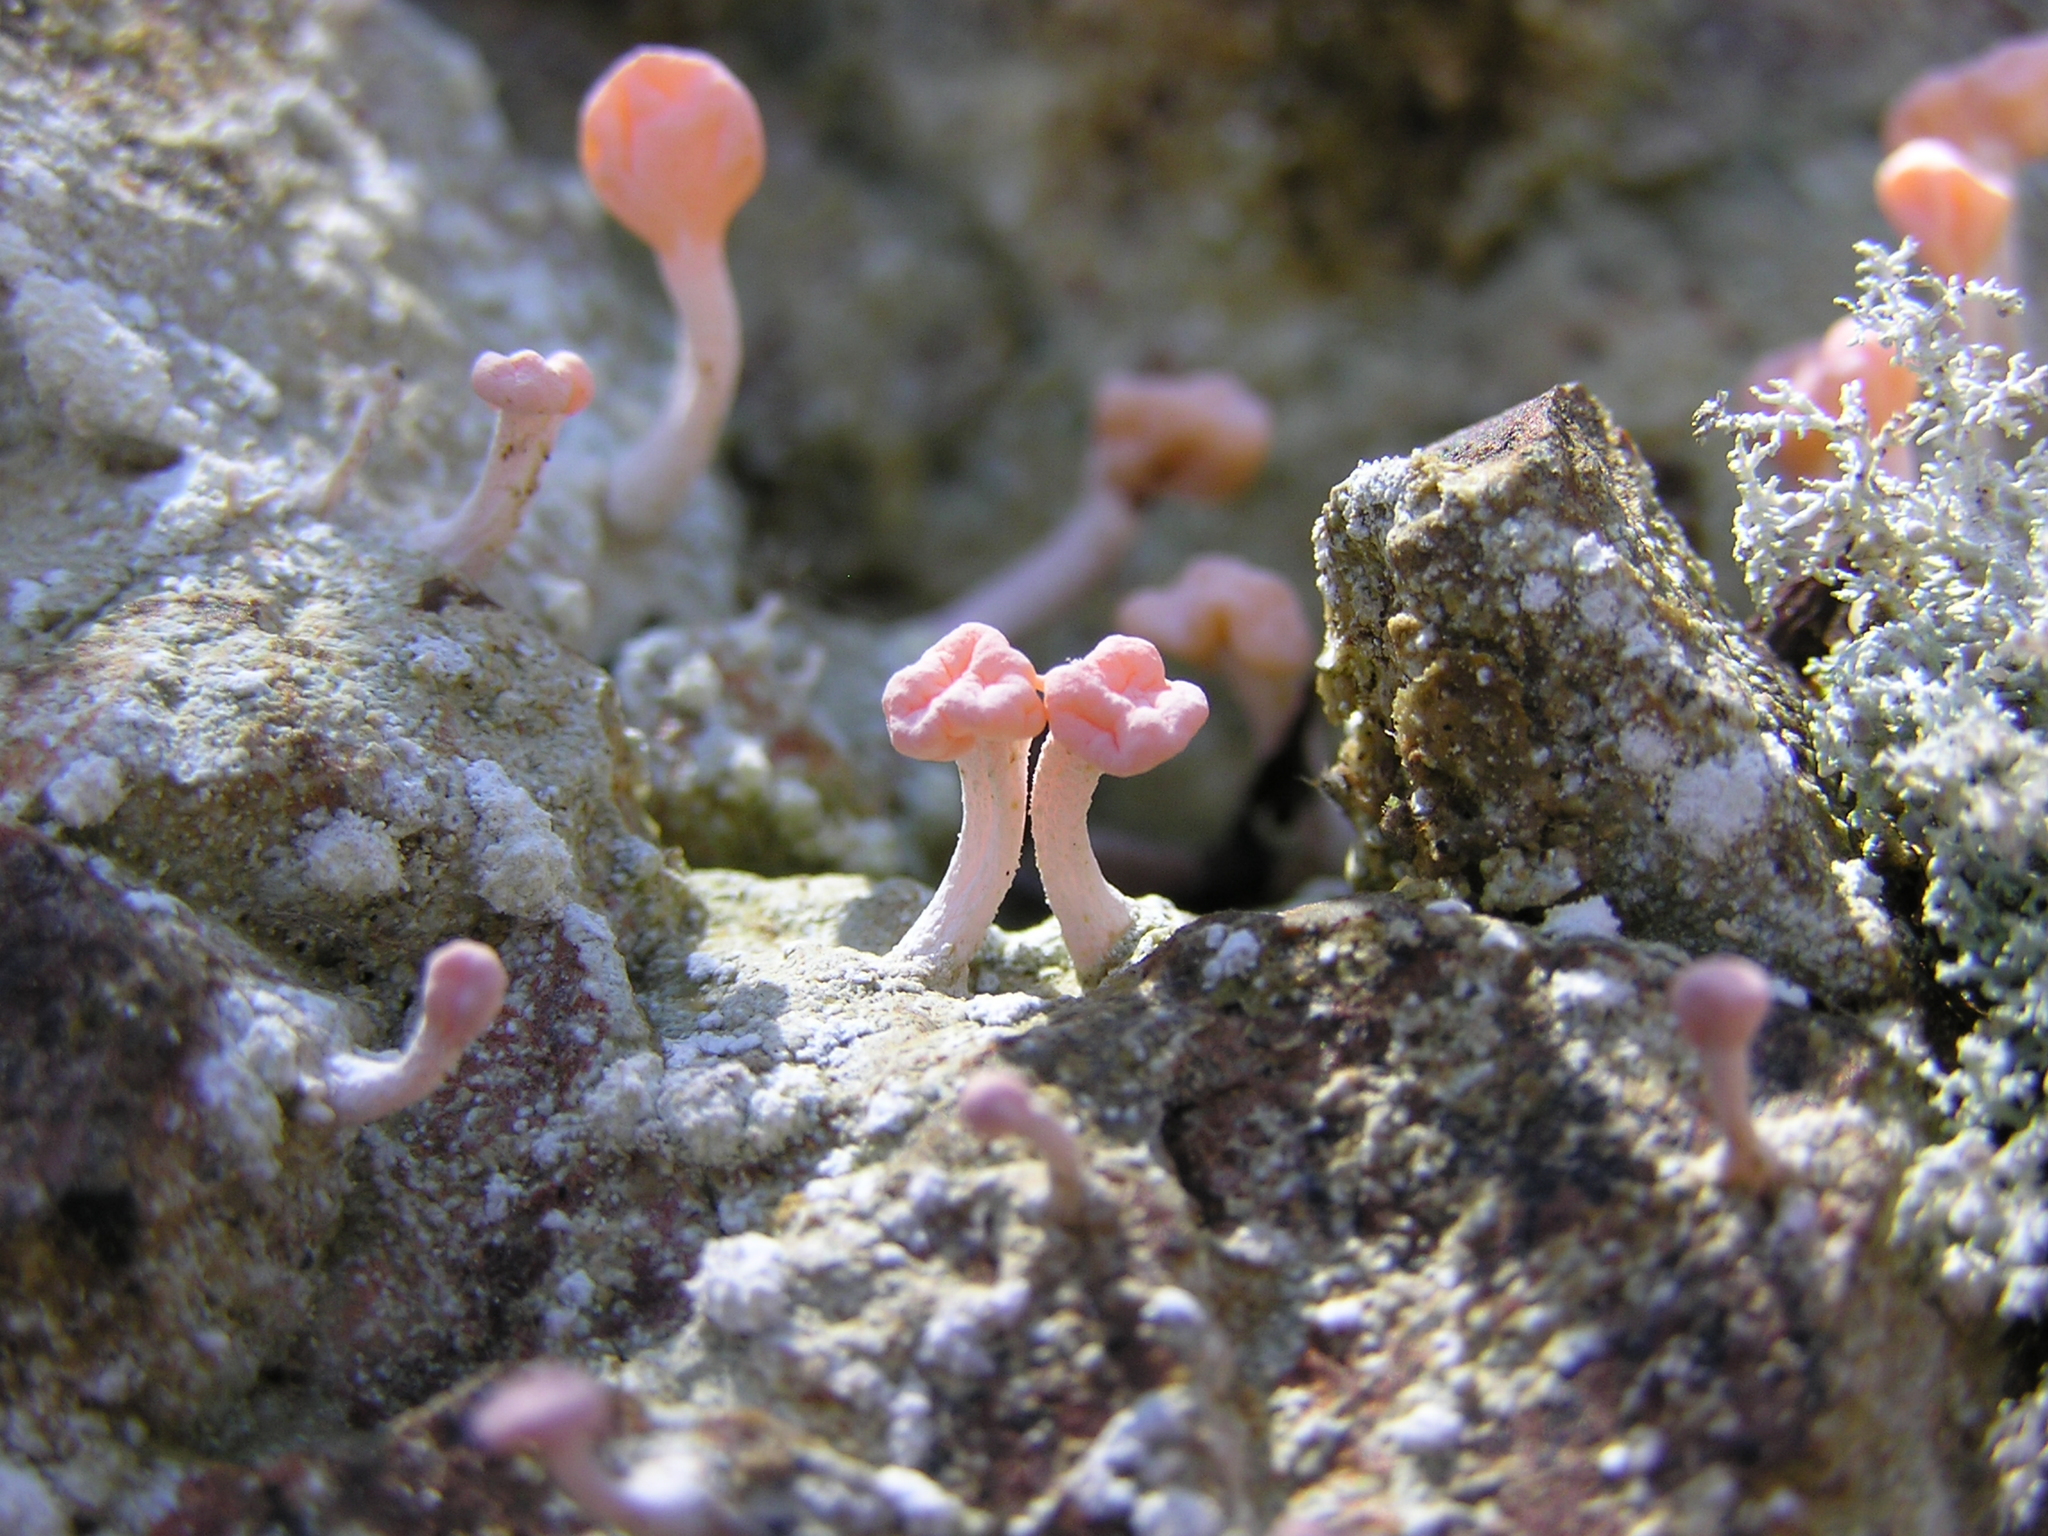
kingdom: Fungi
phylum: Ascomycota
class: Lecanoromycetes
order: Pertusariales
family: Icmadophilaceae
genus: Dibaeis
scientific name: Dibaeis arcuata
